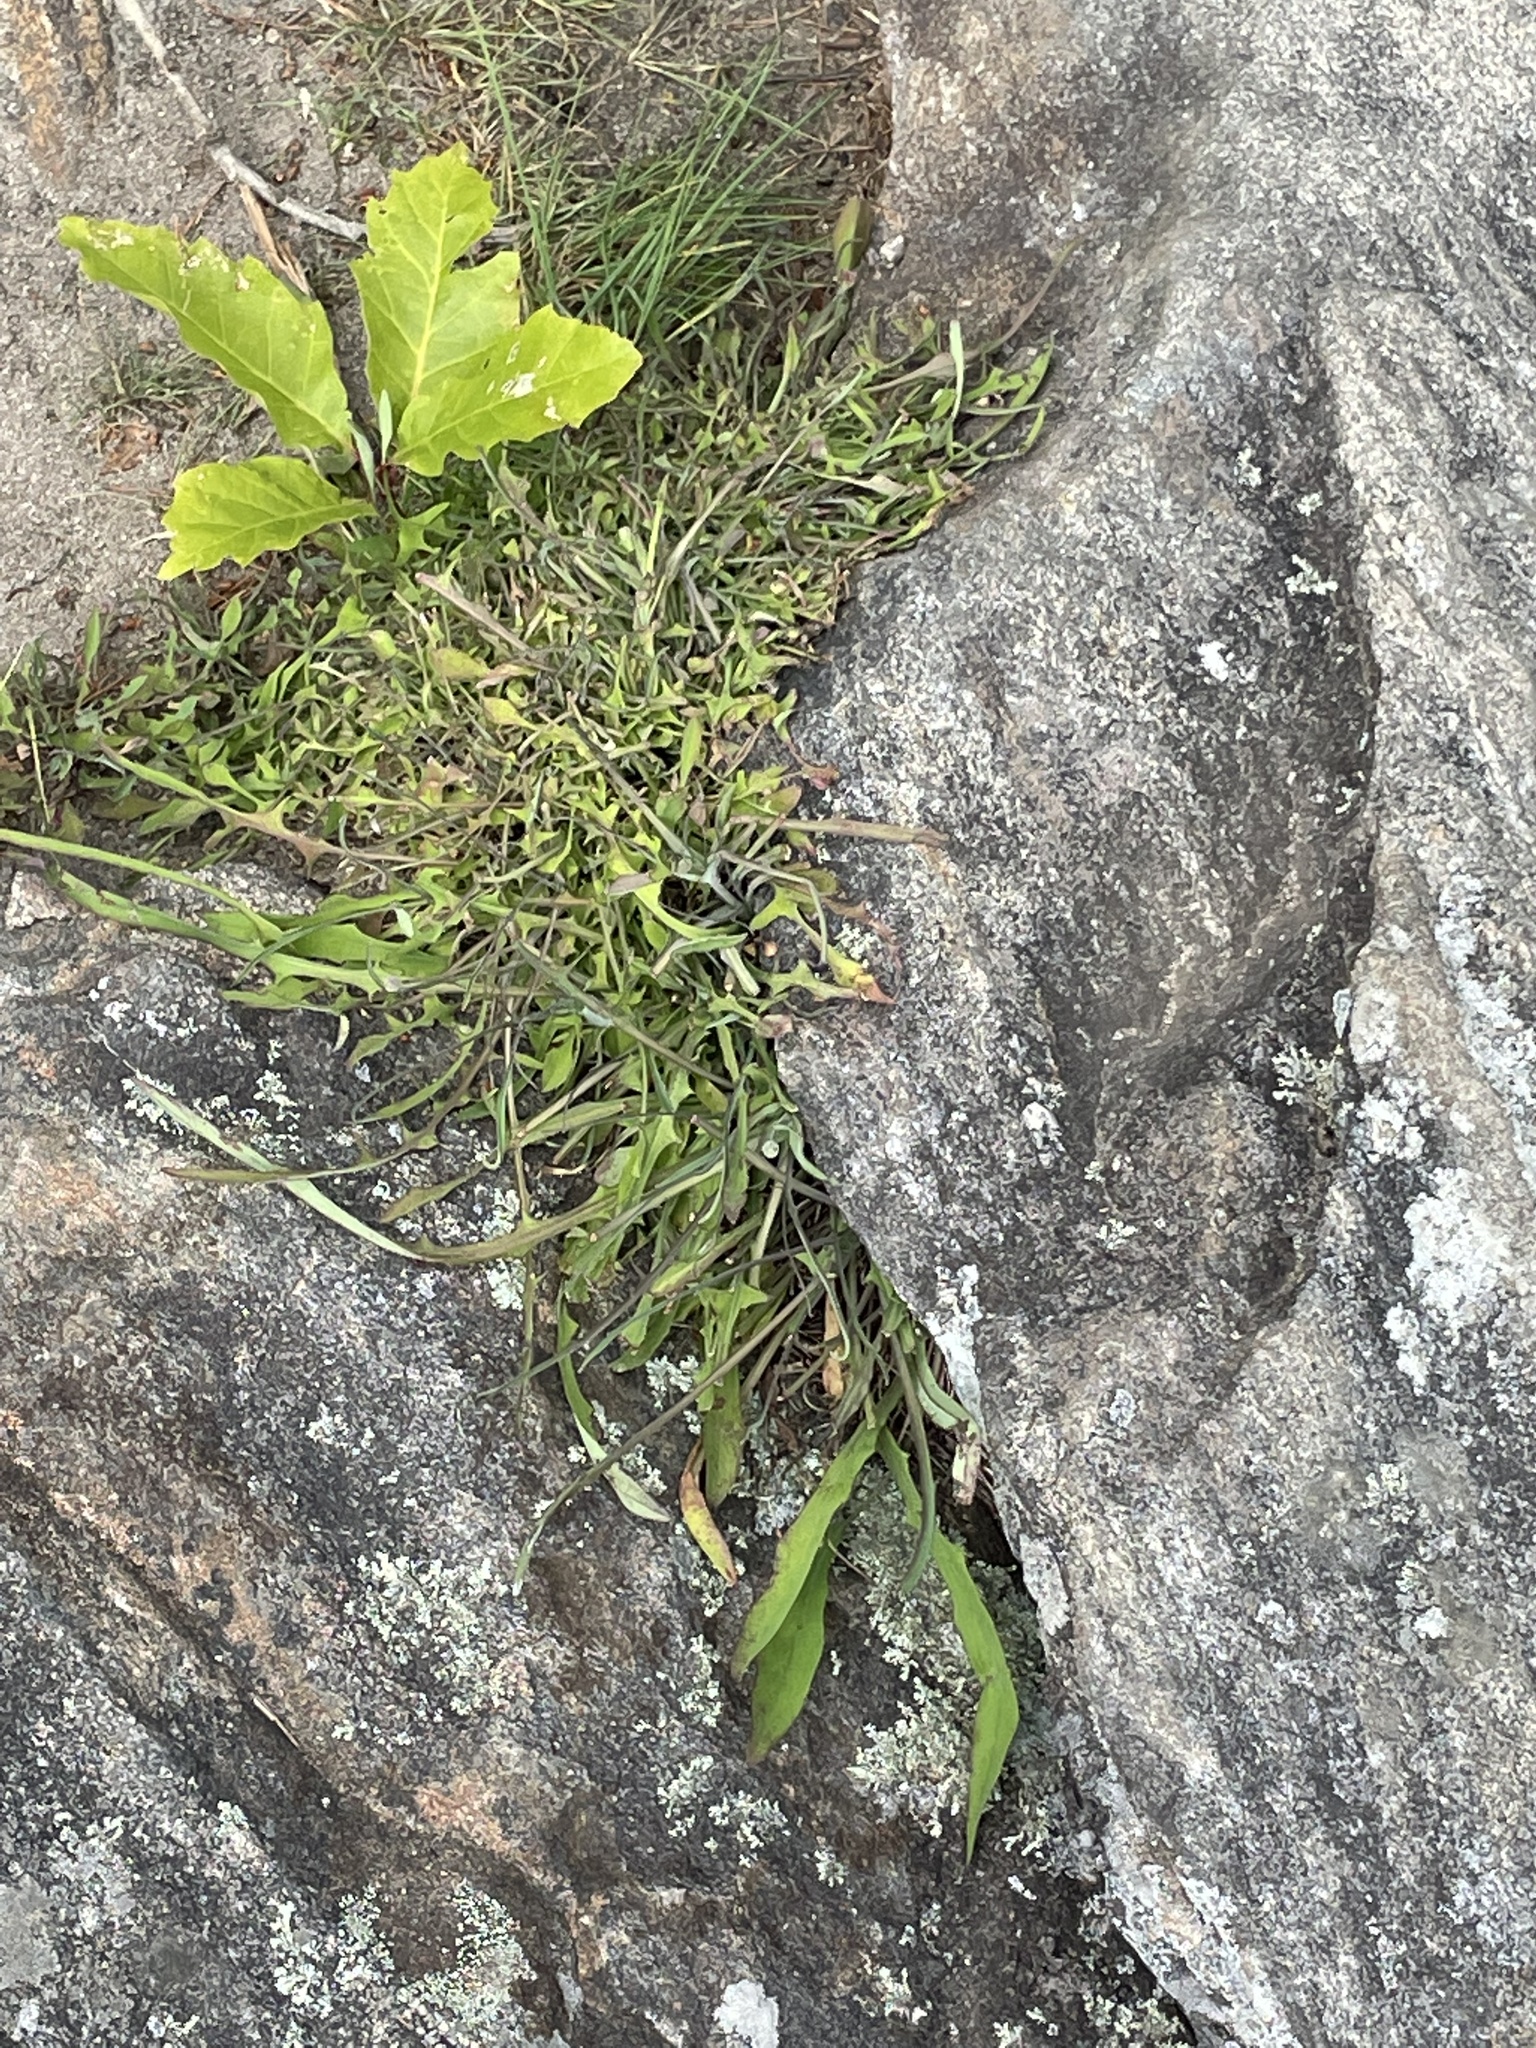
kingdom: Plantae
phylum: Tracheophyta
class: Magnoliopsida
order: Asterales
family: Asteraceae
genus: Krigia
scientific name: Krigia montana
